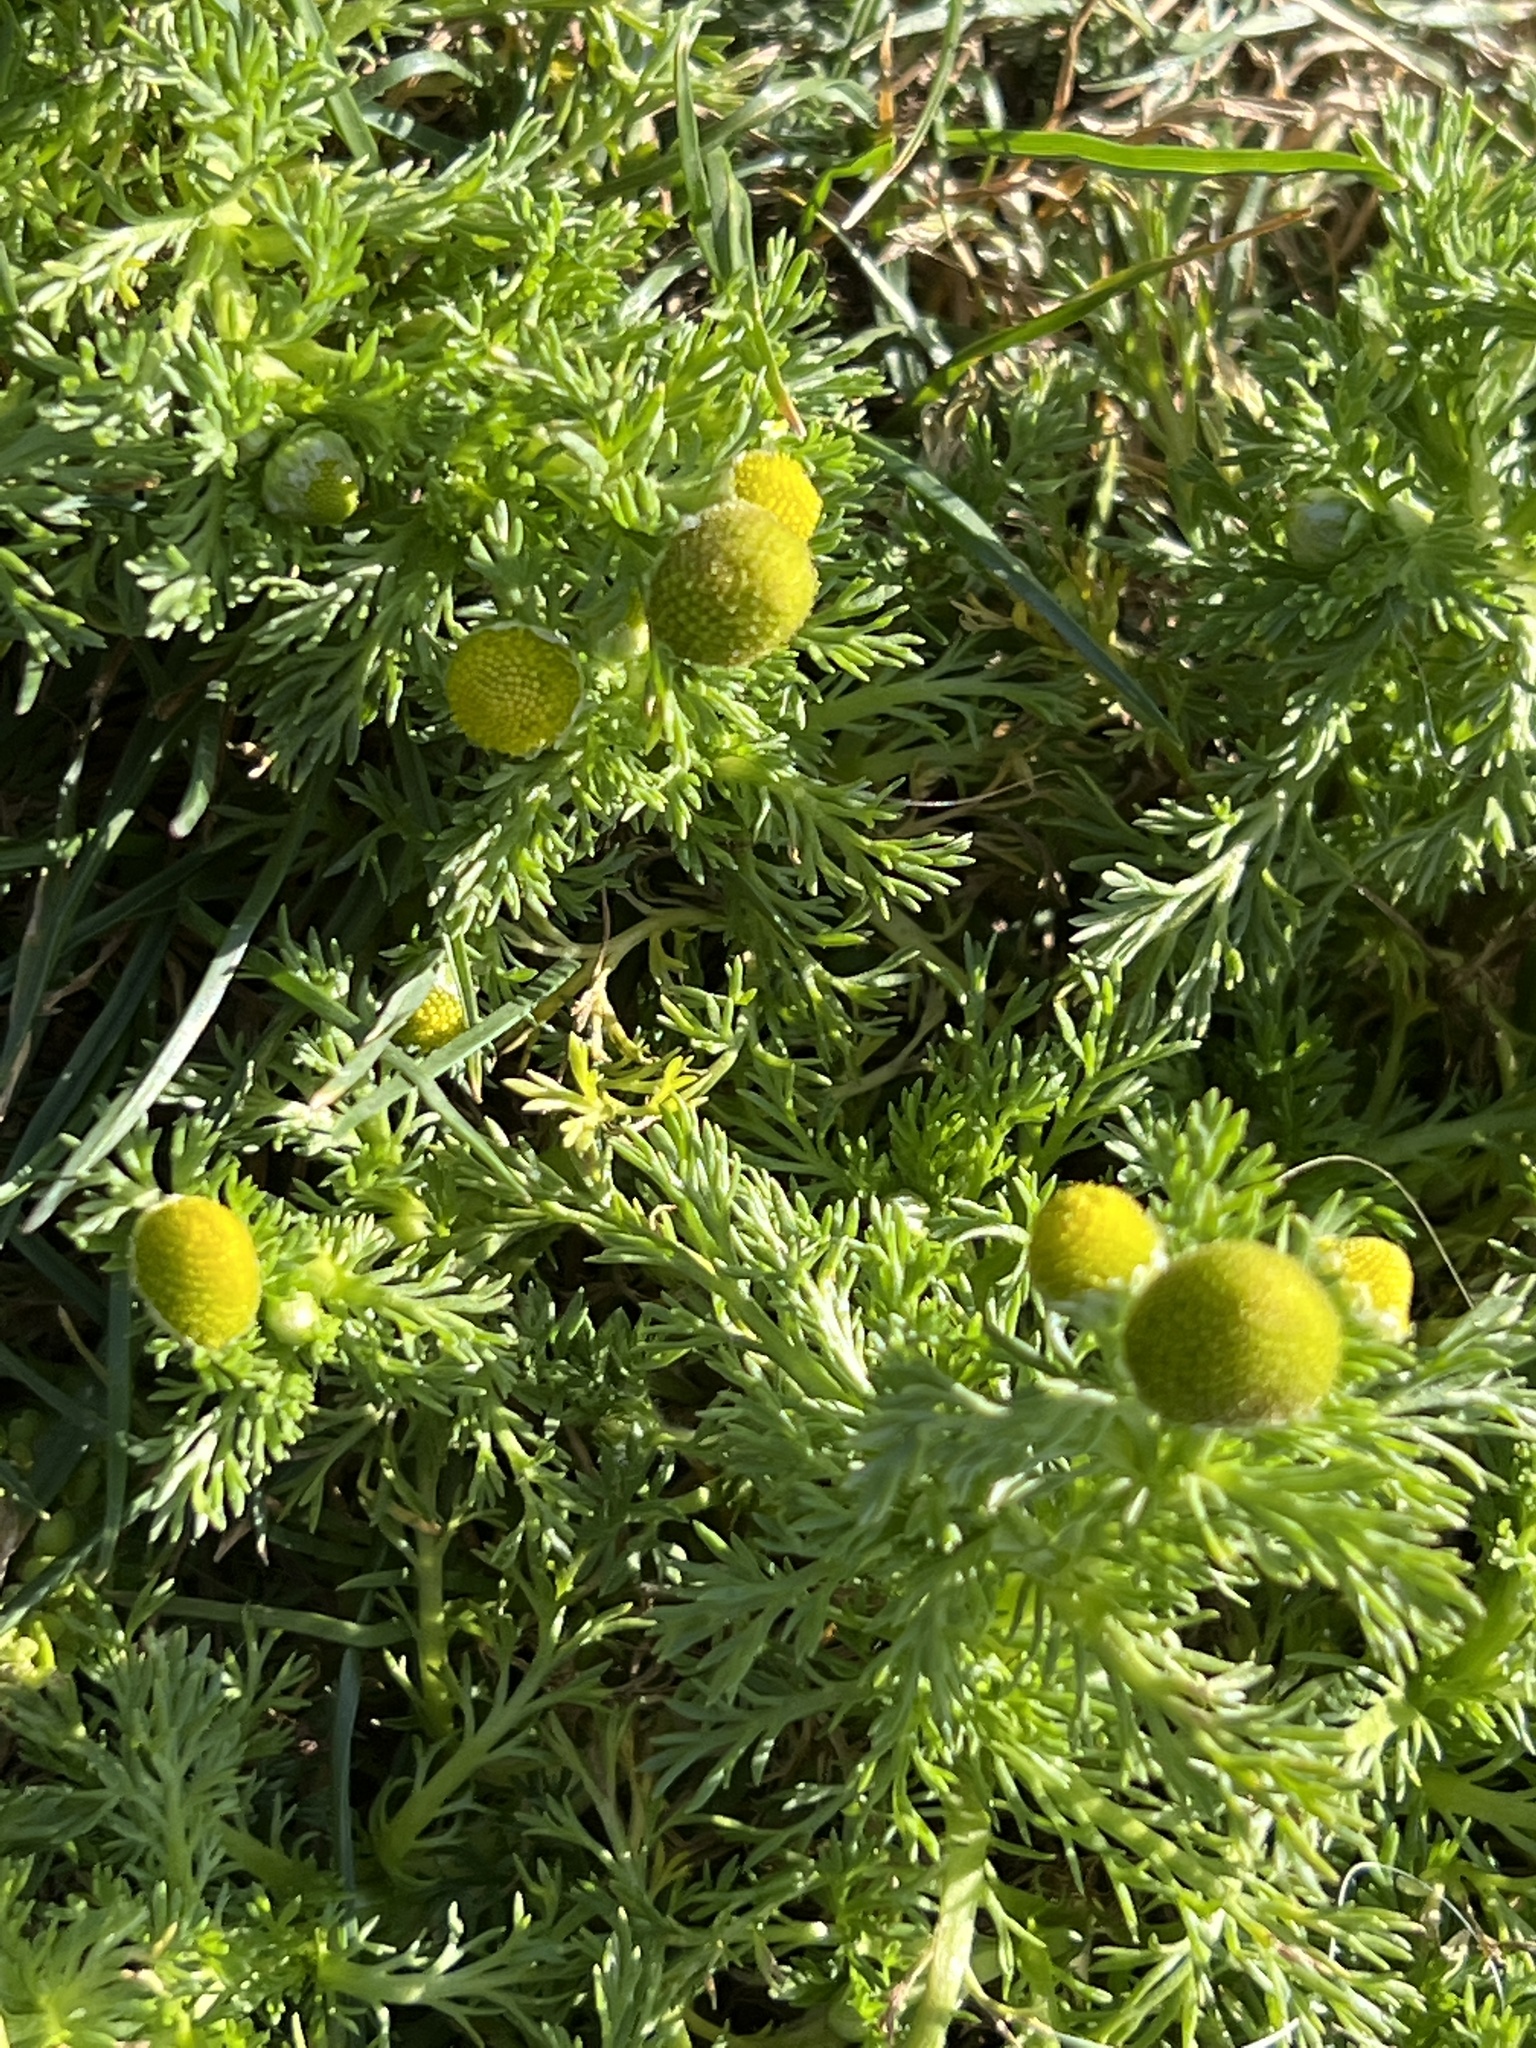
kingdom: Plantae
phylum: Tracheophyta
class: Magnoliopsida
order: Asterales
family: Asteraceae
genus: Matricaria
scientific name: Matricaria discoidea
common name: Disc mayweed
